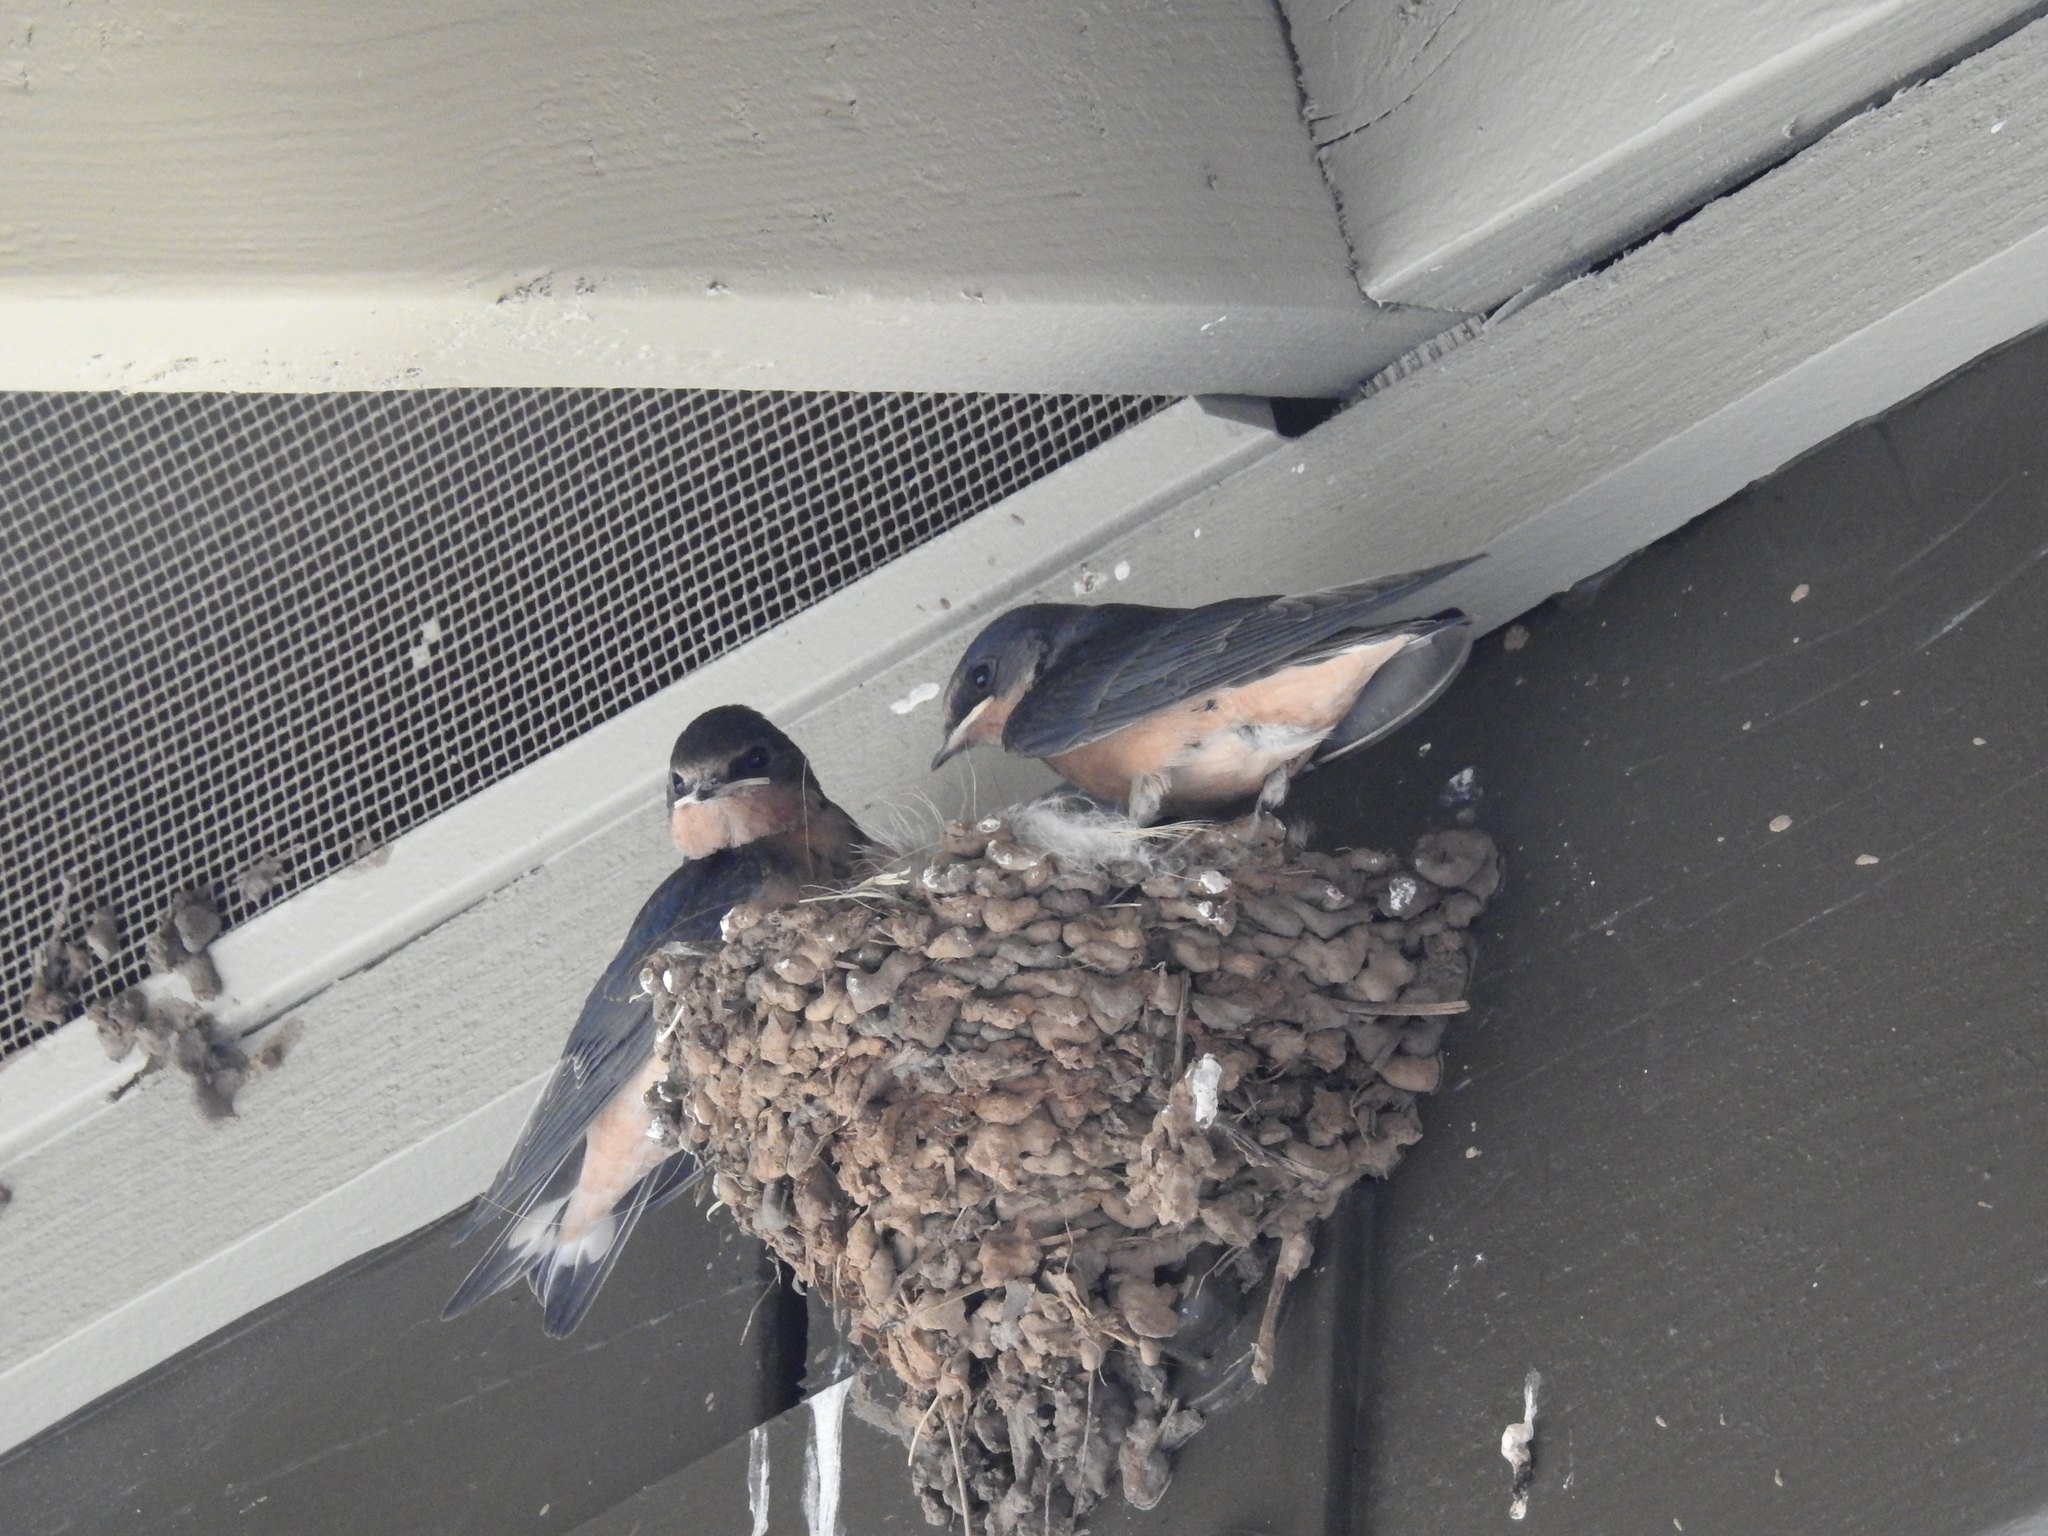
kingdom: Animalia
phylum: Chordata
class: Aves
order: Passeriformes
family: Hirundinidae
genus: Hirundo
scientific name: Hirundo rustica
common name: Barn swallow
